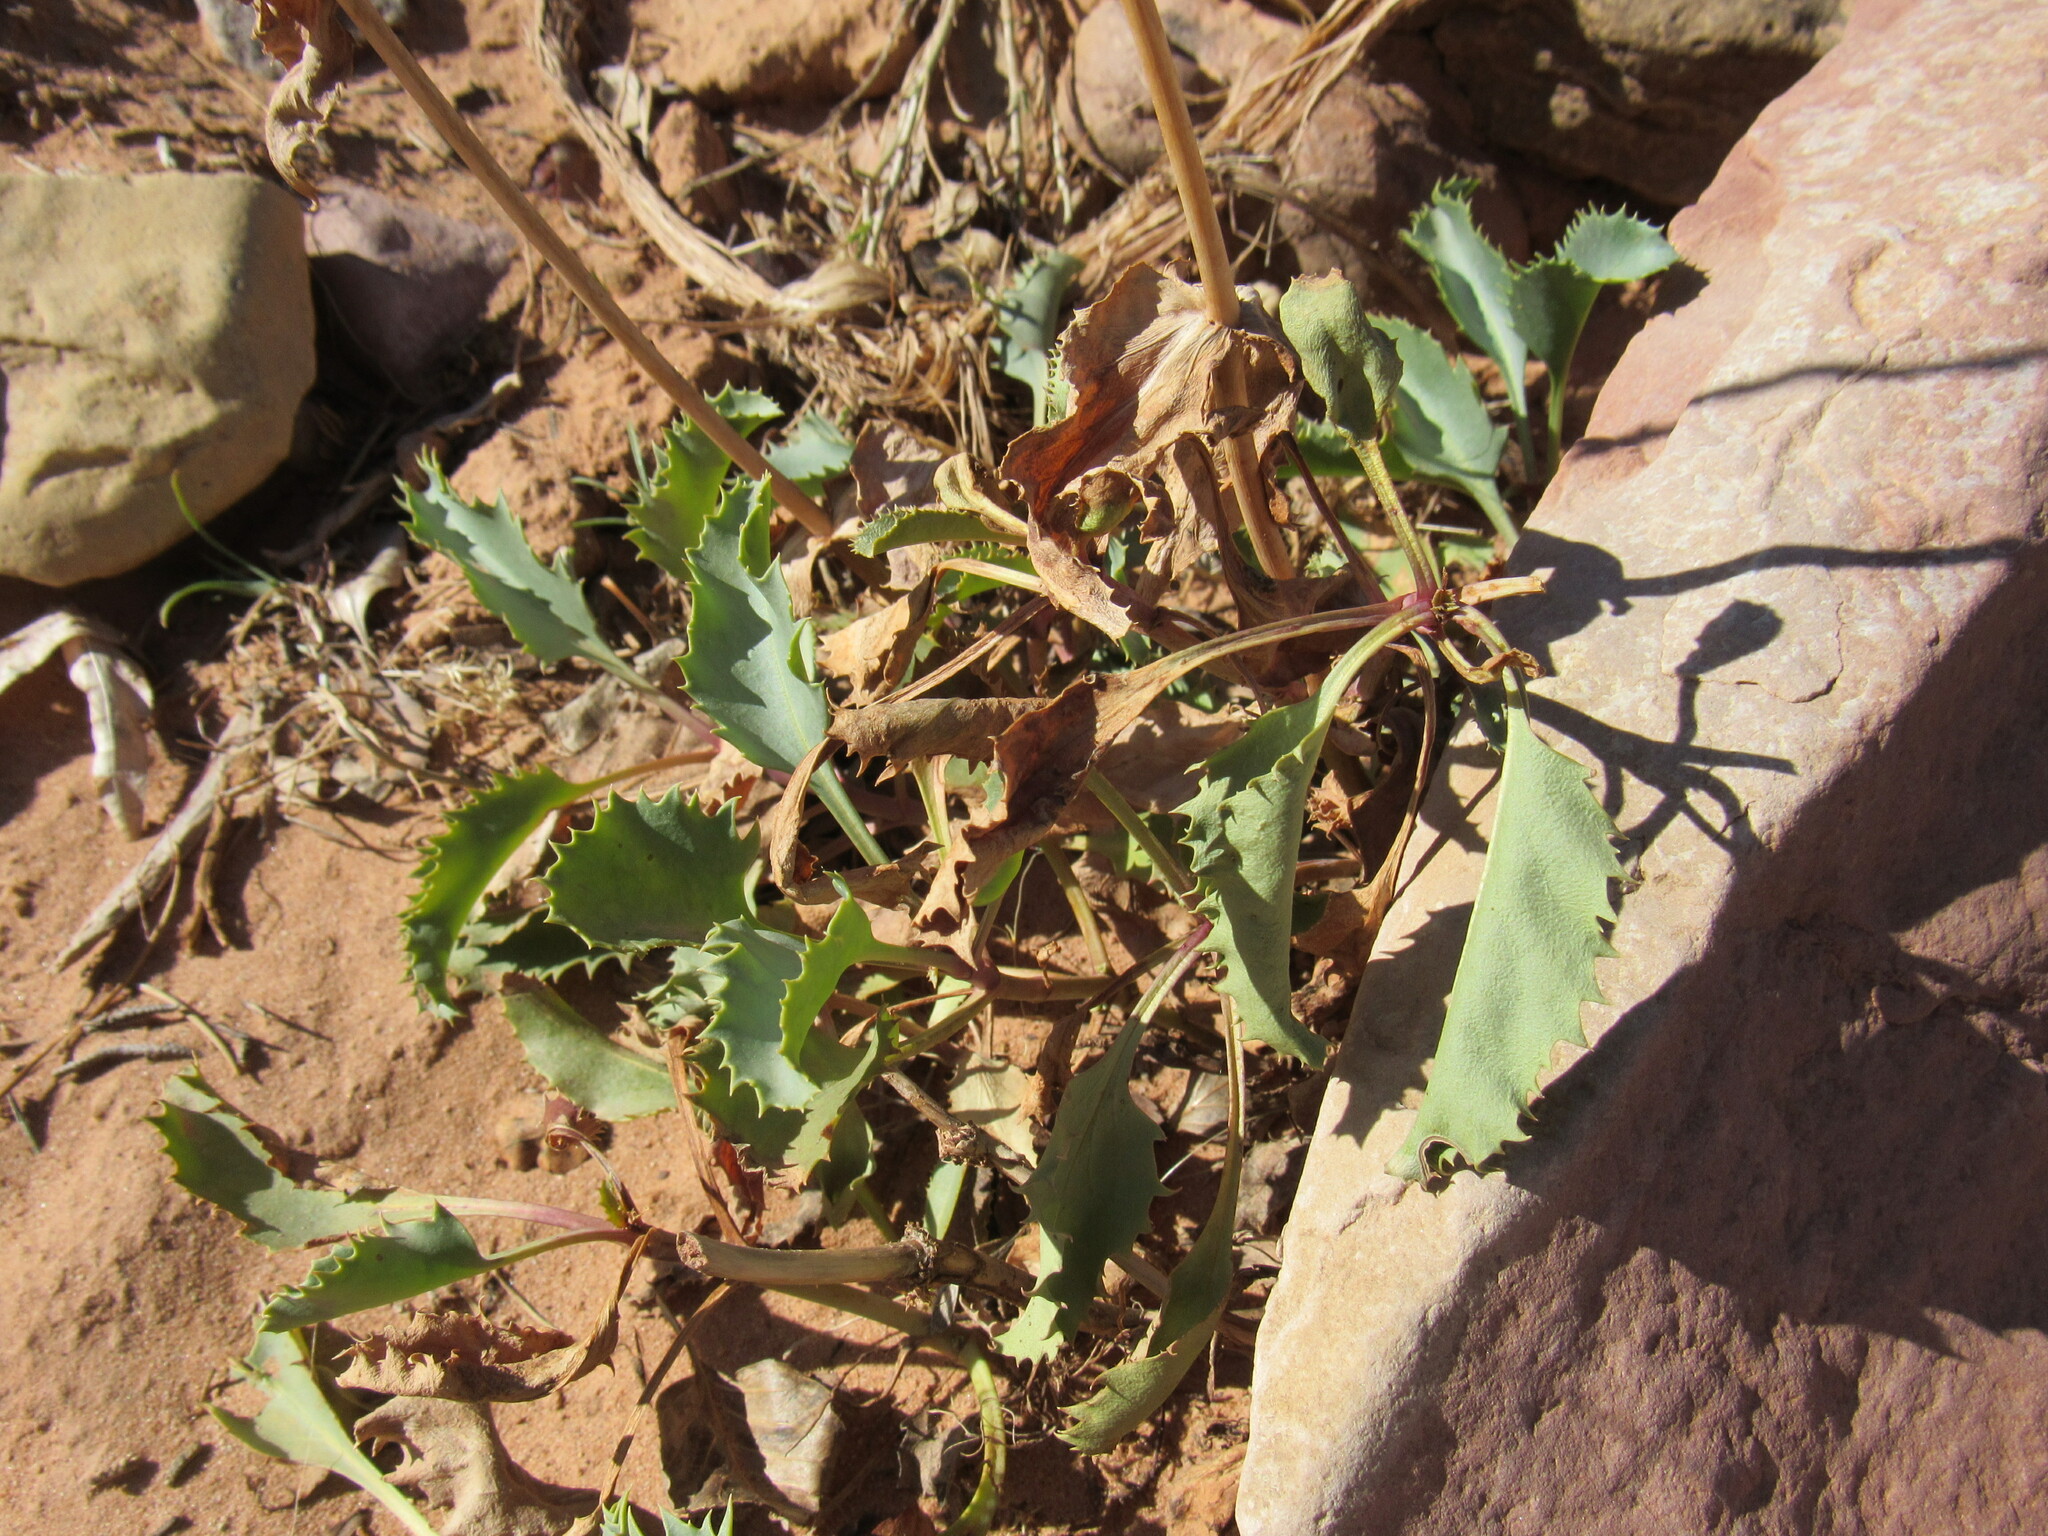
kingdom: Plantae
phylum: Tracheophyta
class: Magnoliopsida
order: Lamiales
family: Plantaginaceae
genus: Penstemon
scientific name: Penstemon palmeri
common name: Palmer penstemon
